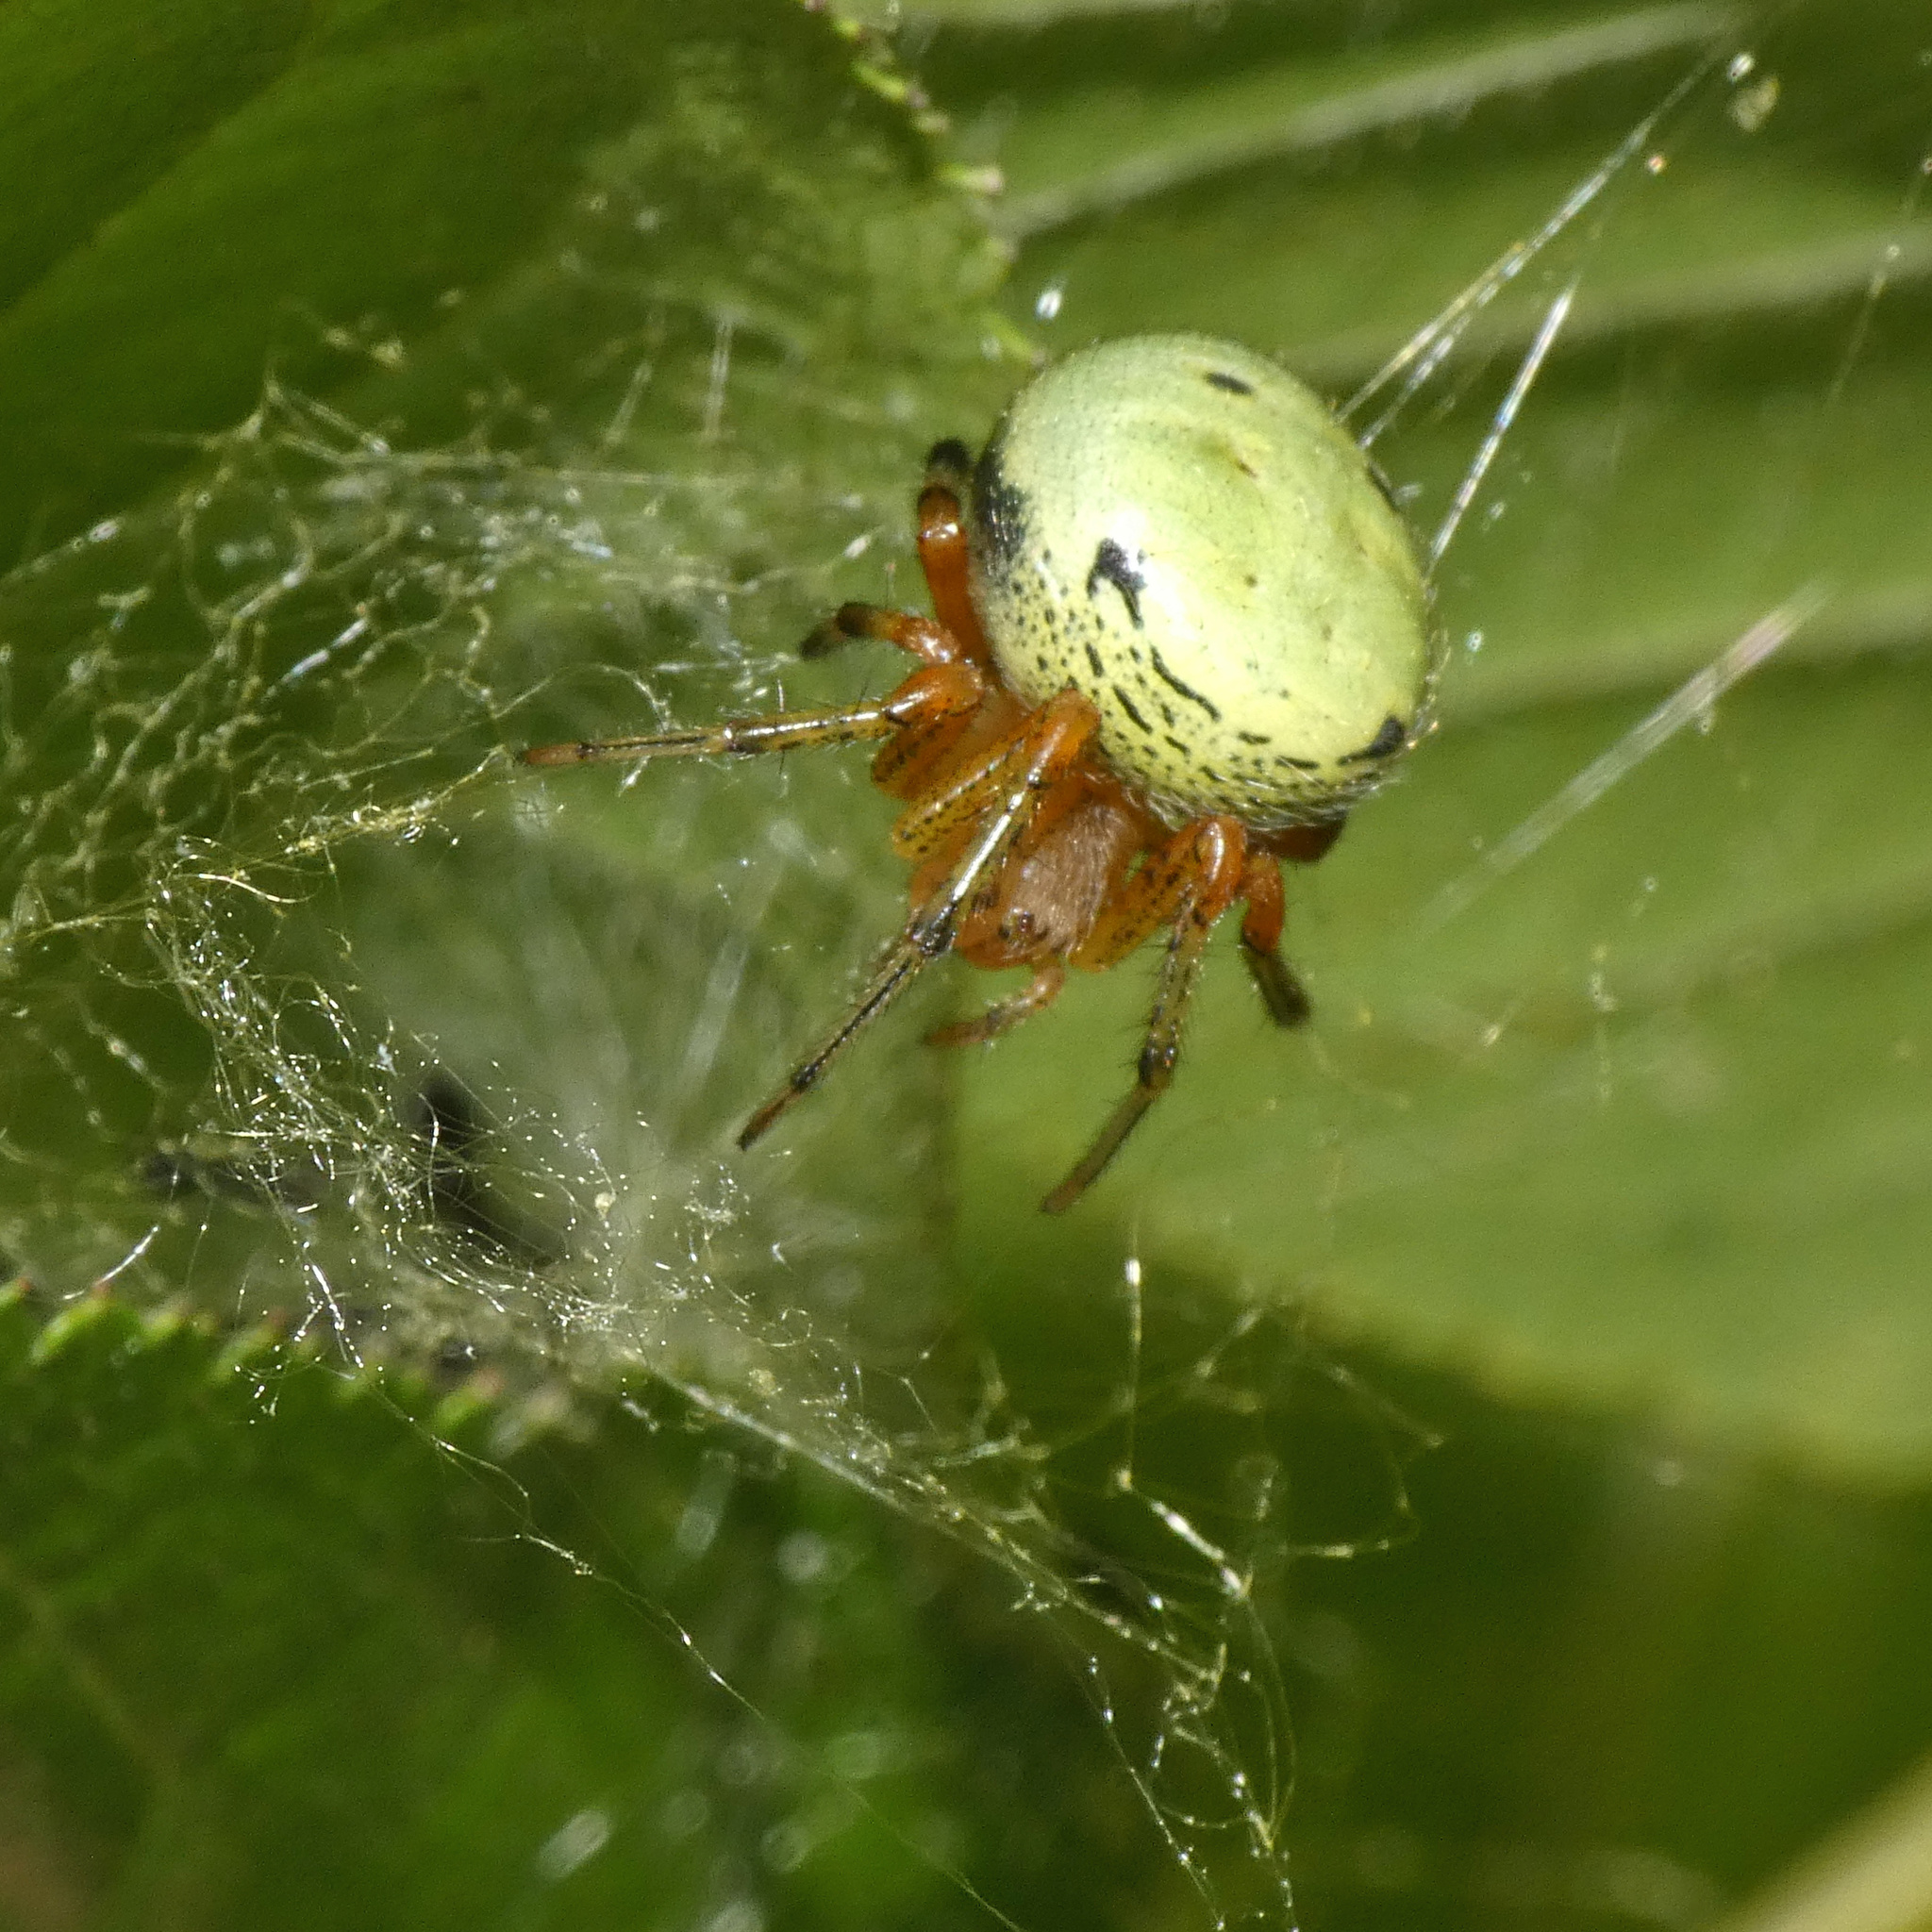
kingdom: Animalia
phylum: Arthropoda
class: Arachnida
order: Araneae
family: Araneidae
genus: Neoscona
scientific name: Neoscona rufipalpis
